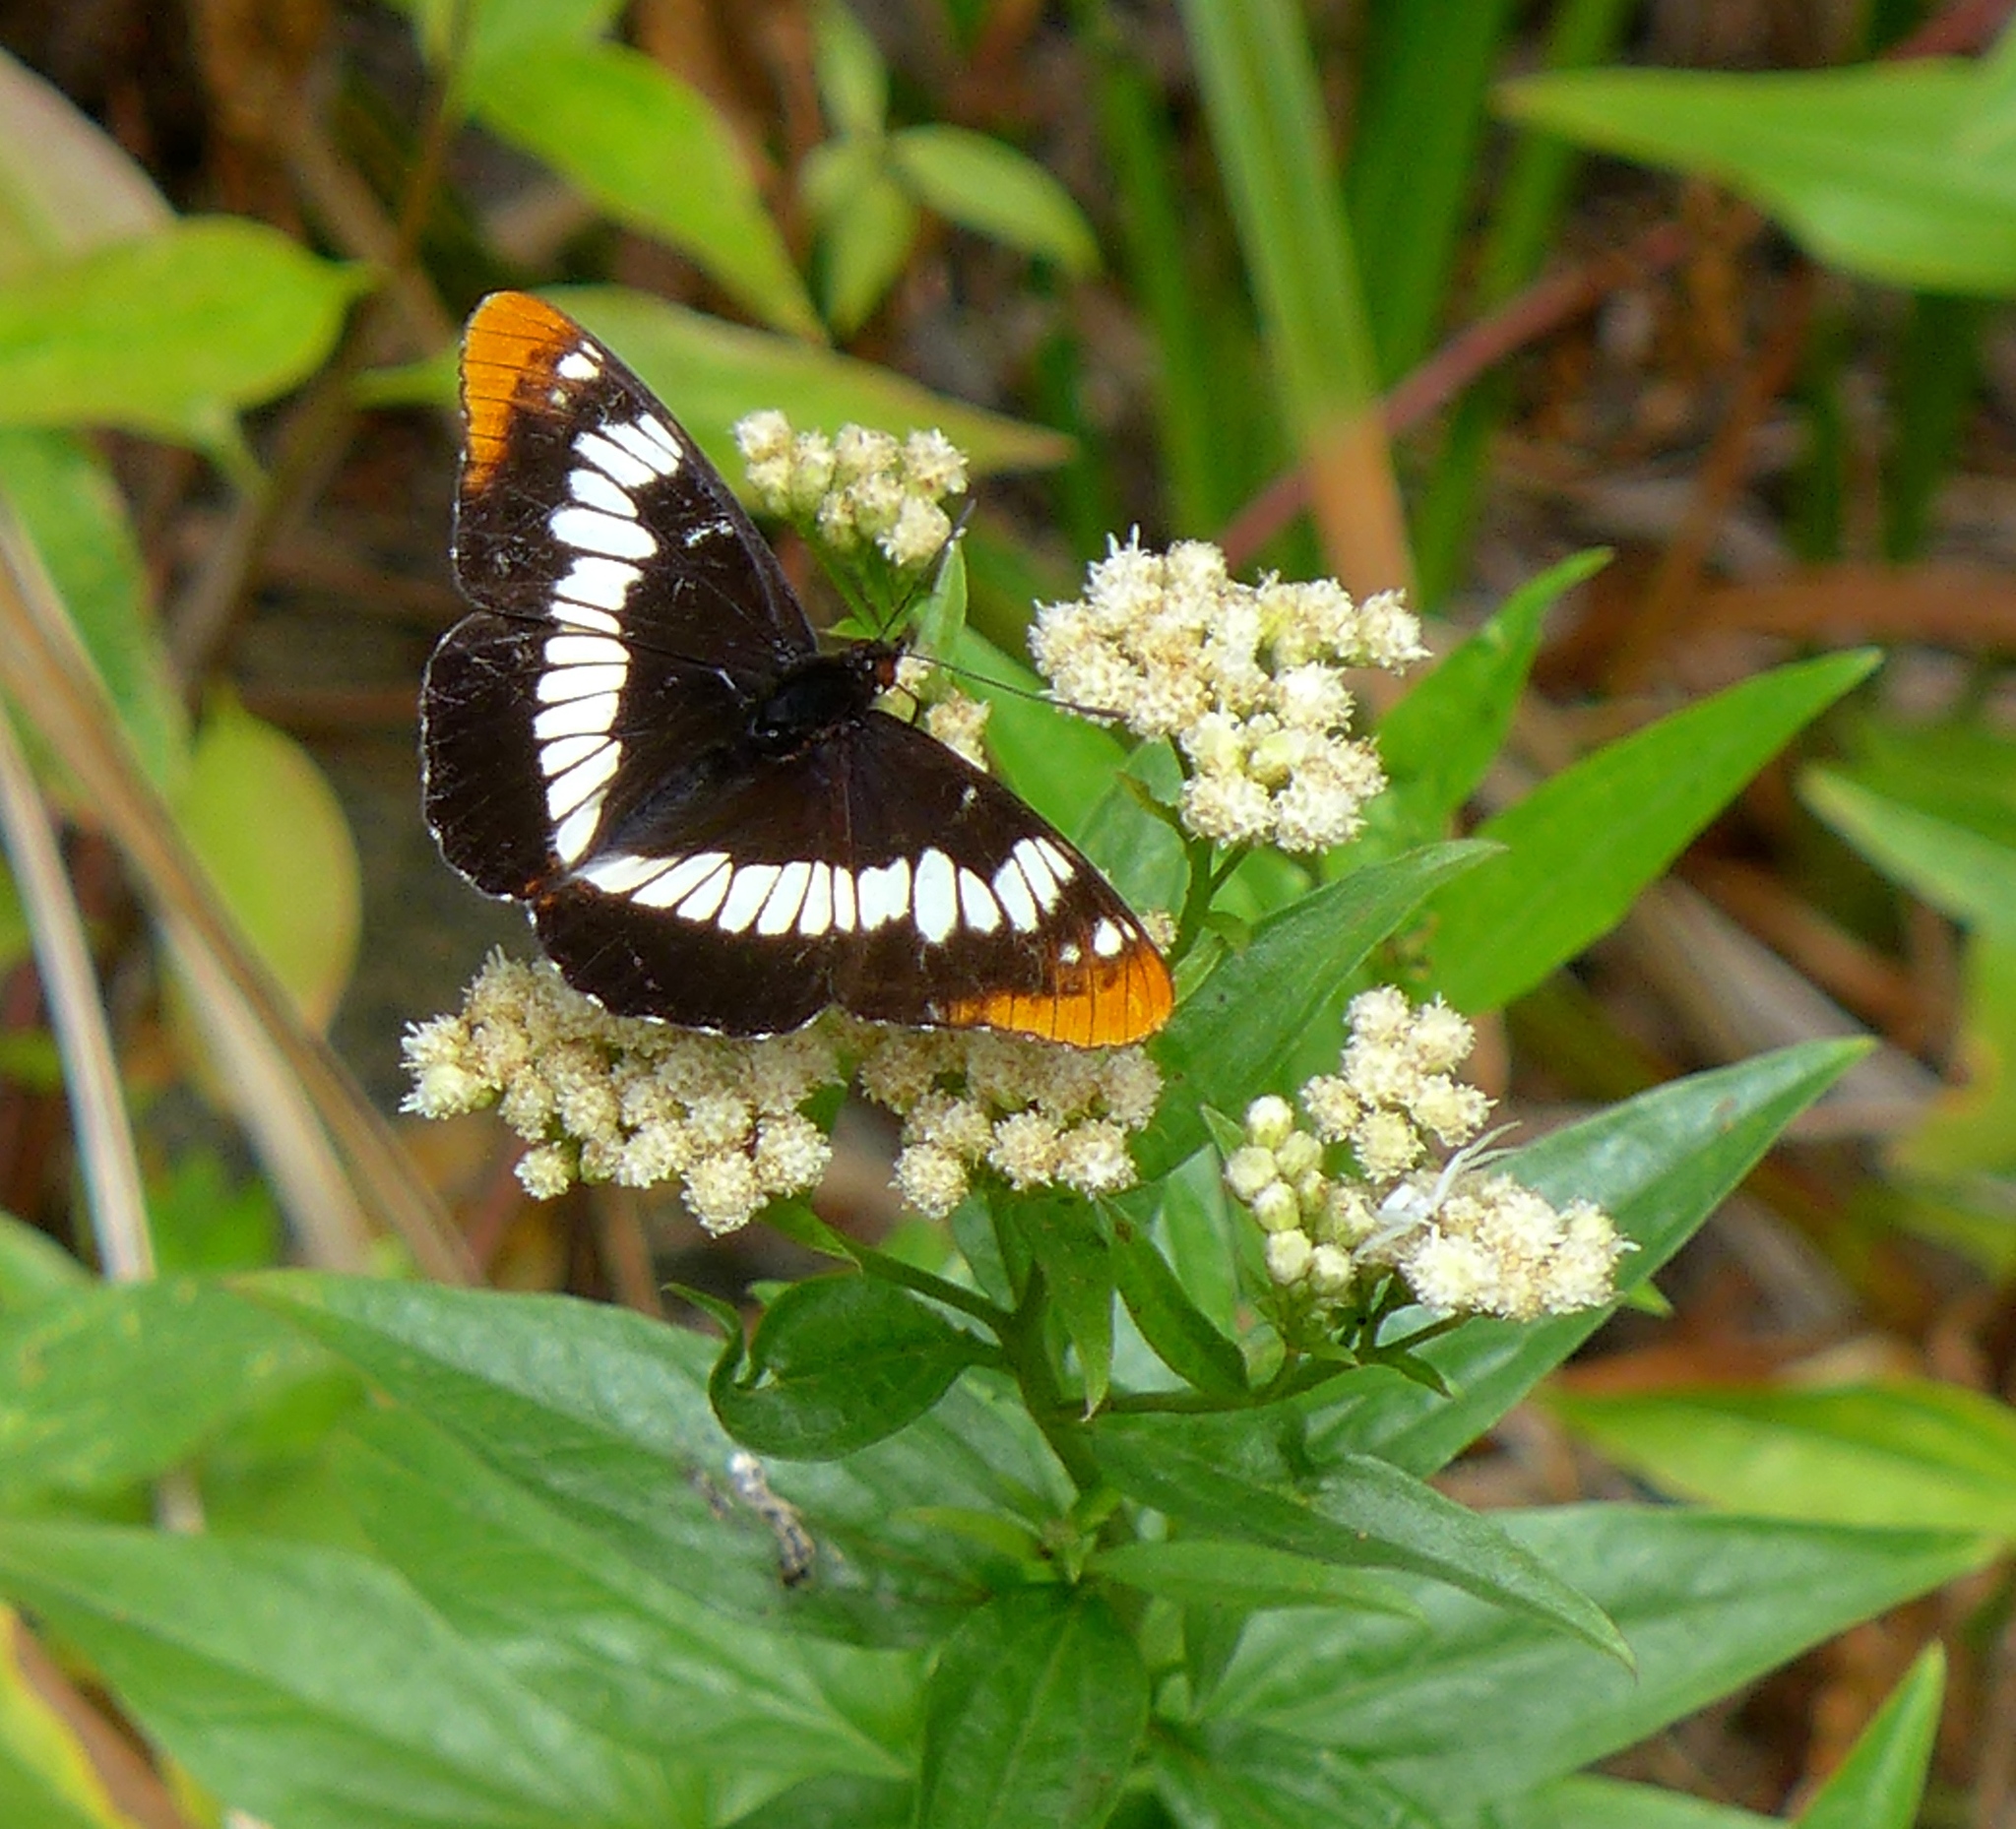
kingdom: Animalia
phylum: Arthropoda
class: Insecta
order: Lepidoptera
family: Nymphalidae
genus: Limenitis
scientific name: Limenitis lorquini
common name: Lorquin's admiral
